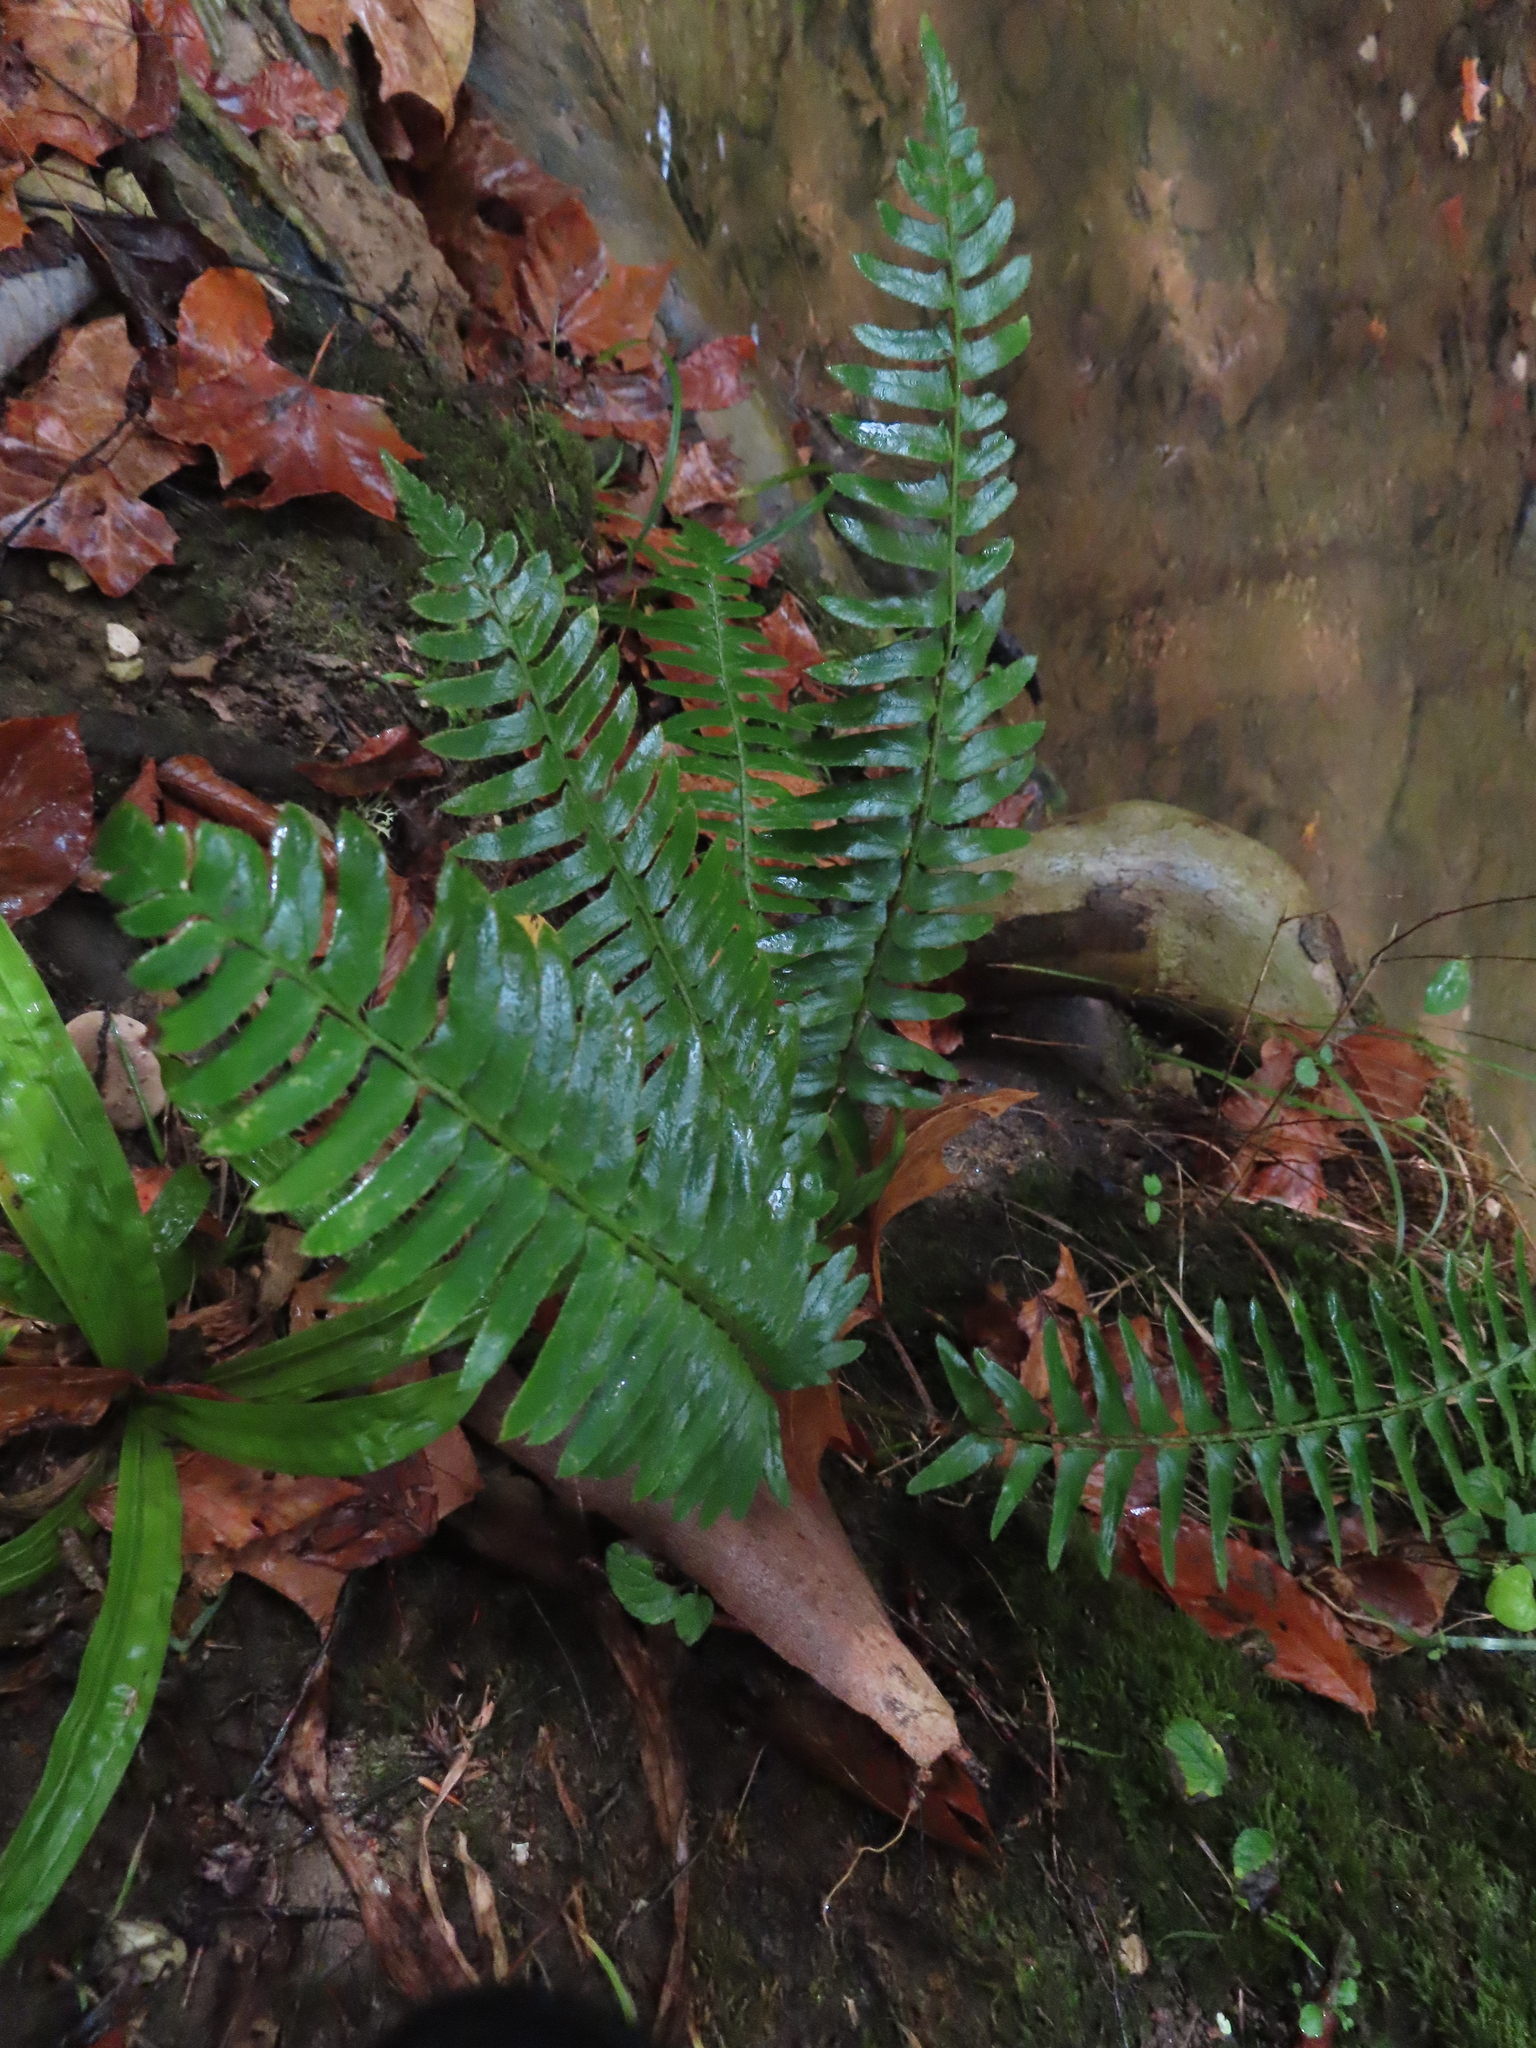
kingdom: Plantae
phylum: Tracheophyta
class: Polypodiopsida
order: Polypodiales
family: Dryopteridaceae
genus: Polystichum
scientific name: Polystichum acrostichoides
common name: Christmas fern
